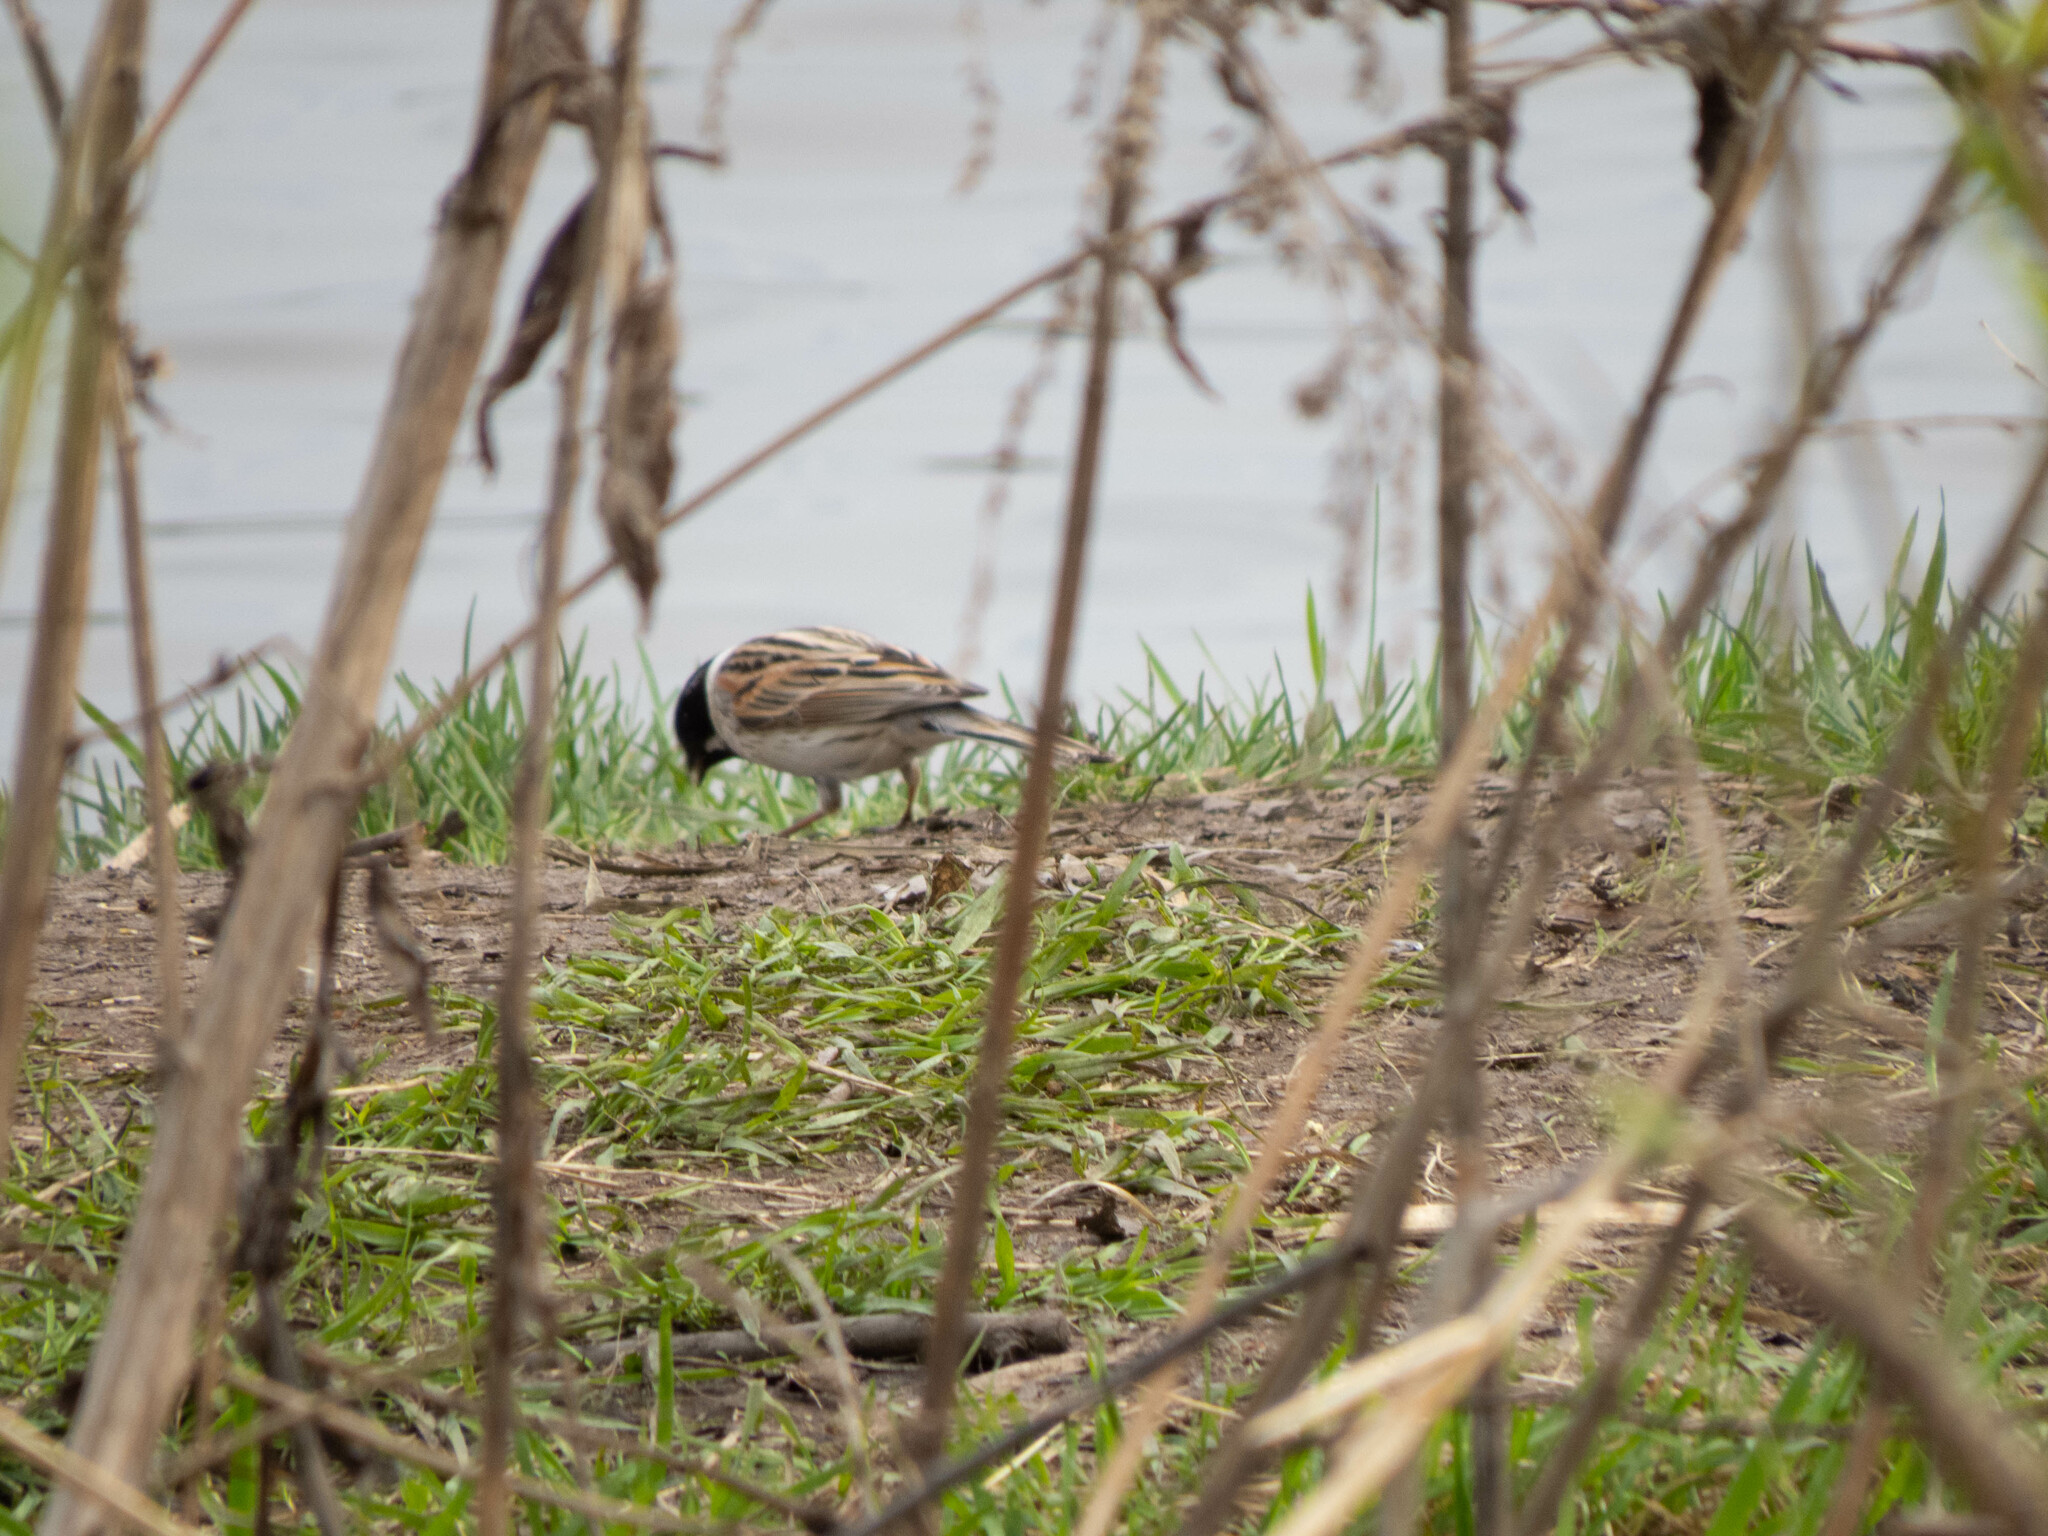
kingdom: Animalia
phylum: Chordata
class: Aves
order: Passeriformes
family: Emberizidae
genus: Emberiza
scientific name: Emberiza schoeniclus
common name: Reed bunting
